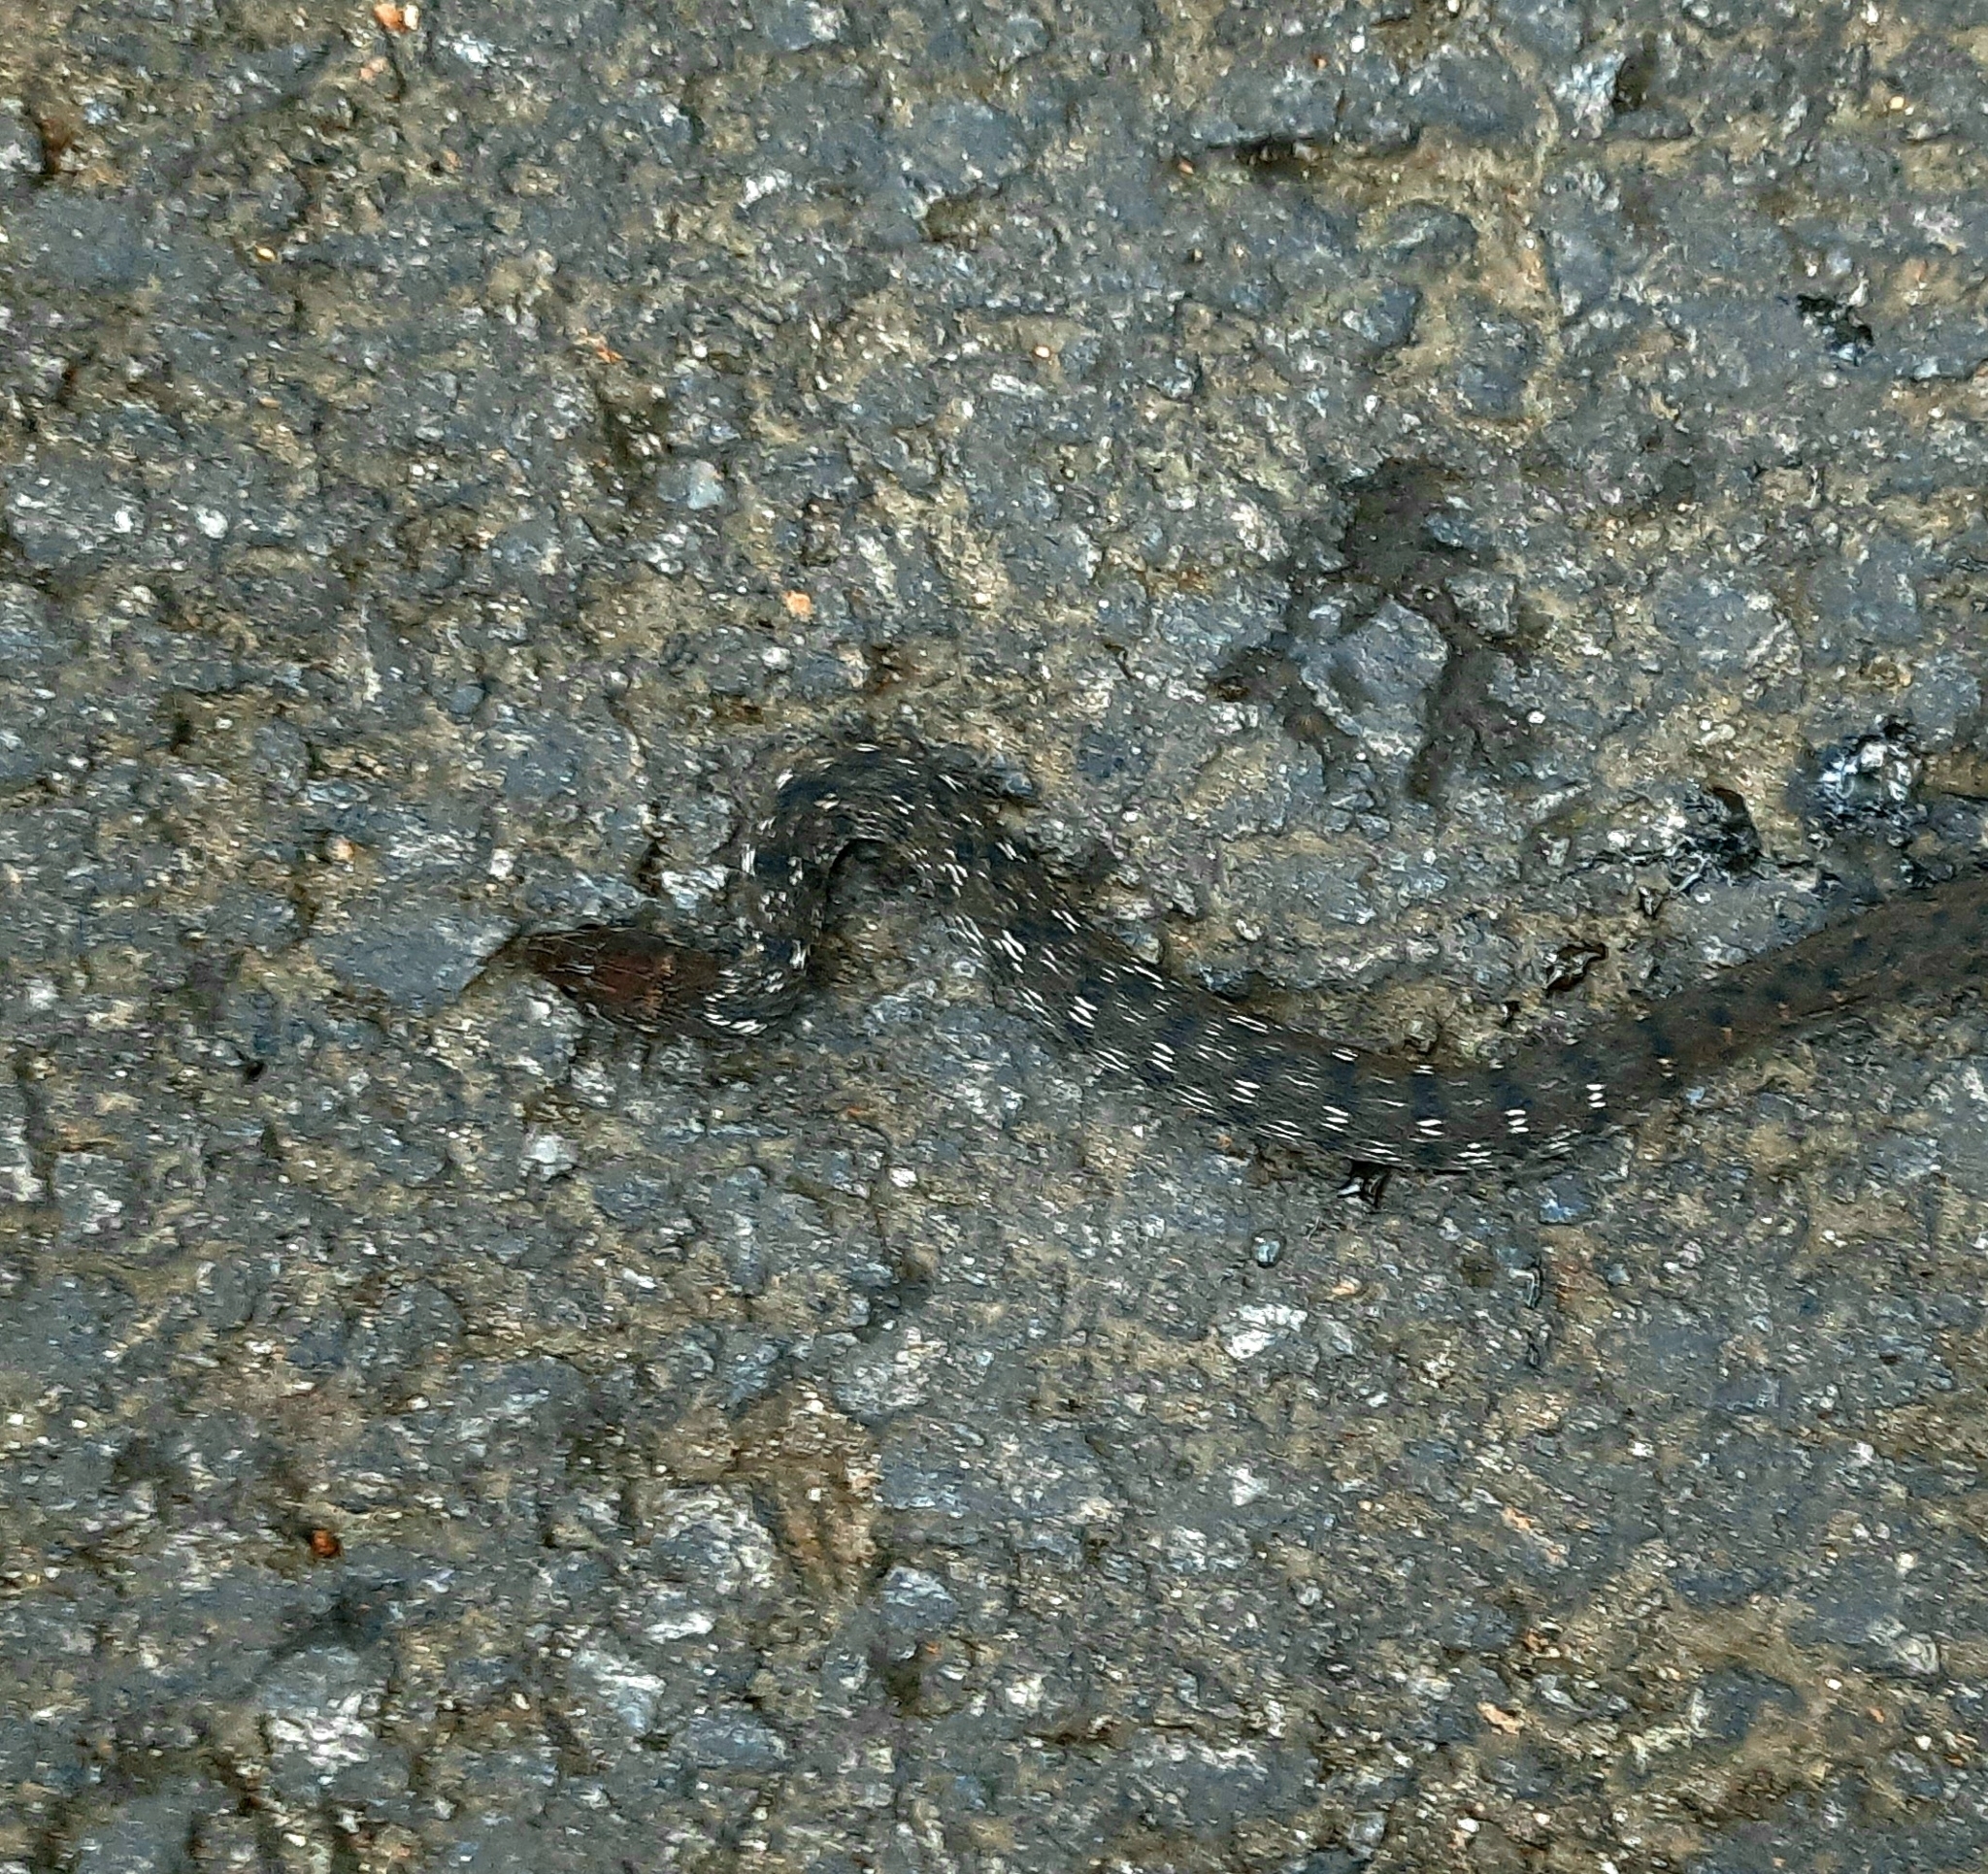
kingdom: Animalia
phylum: Chordata
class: Squamata
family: Colubridae
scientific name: Colubridae
